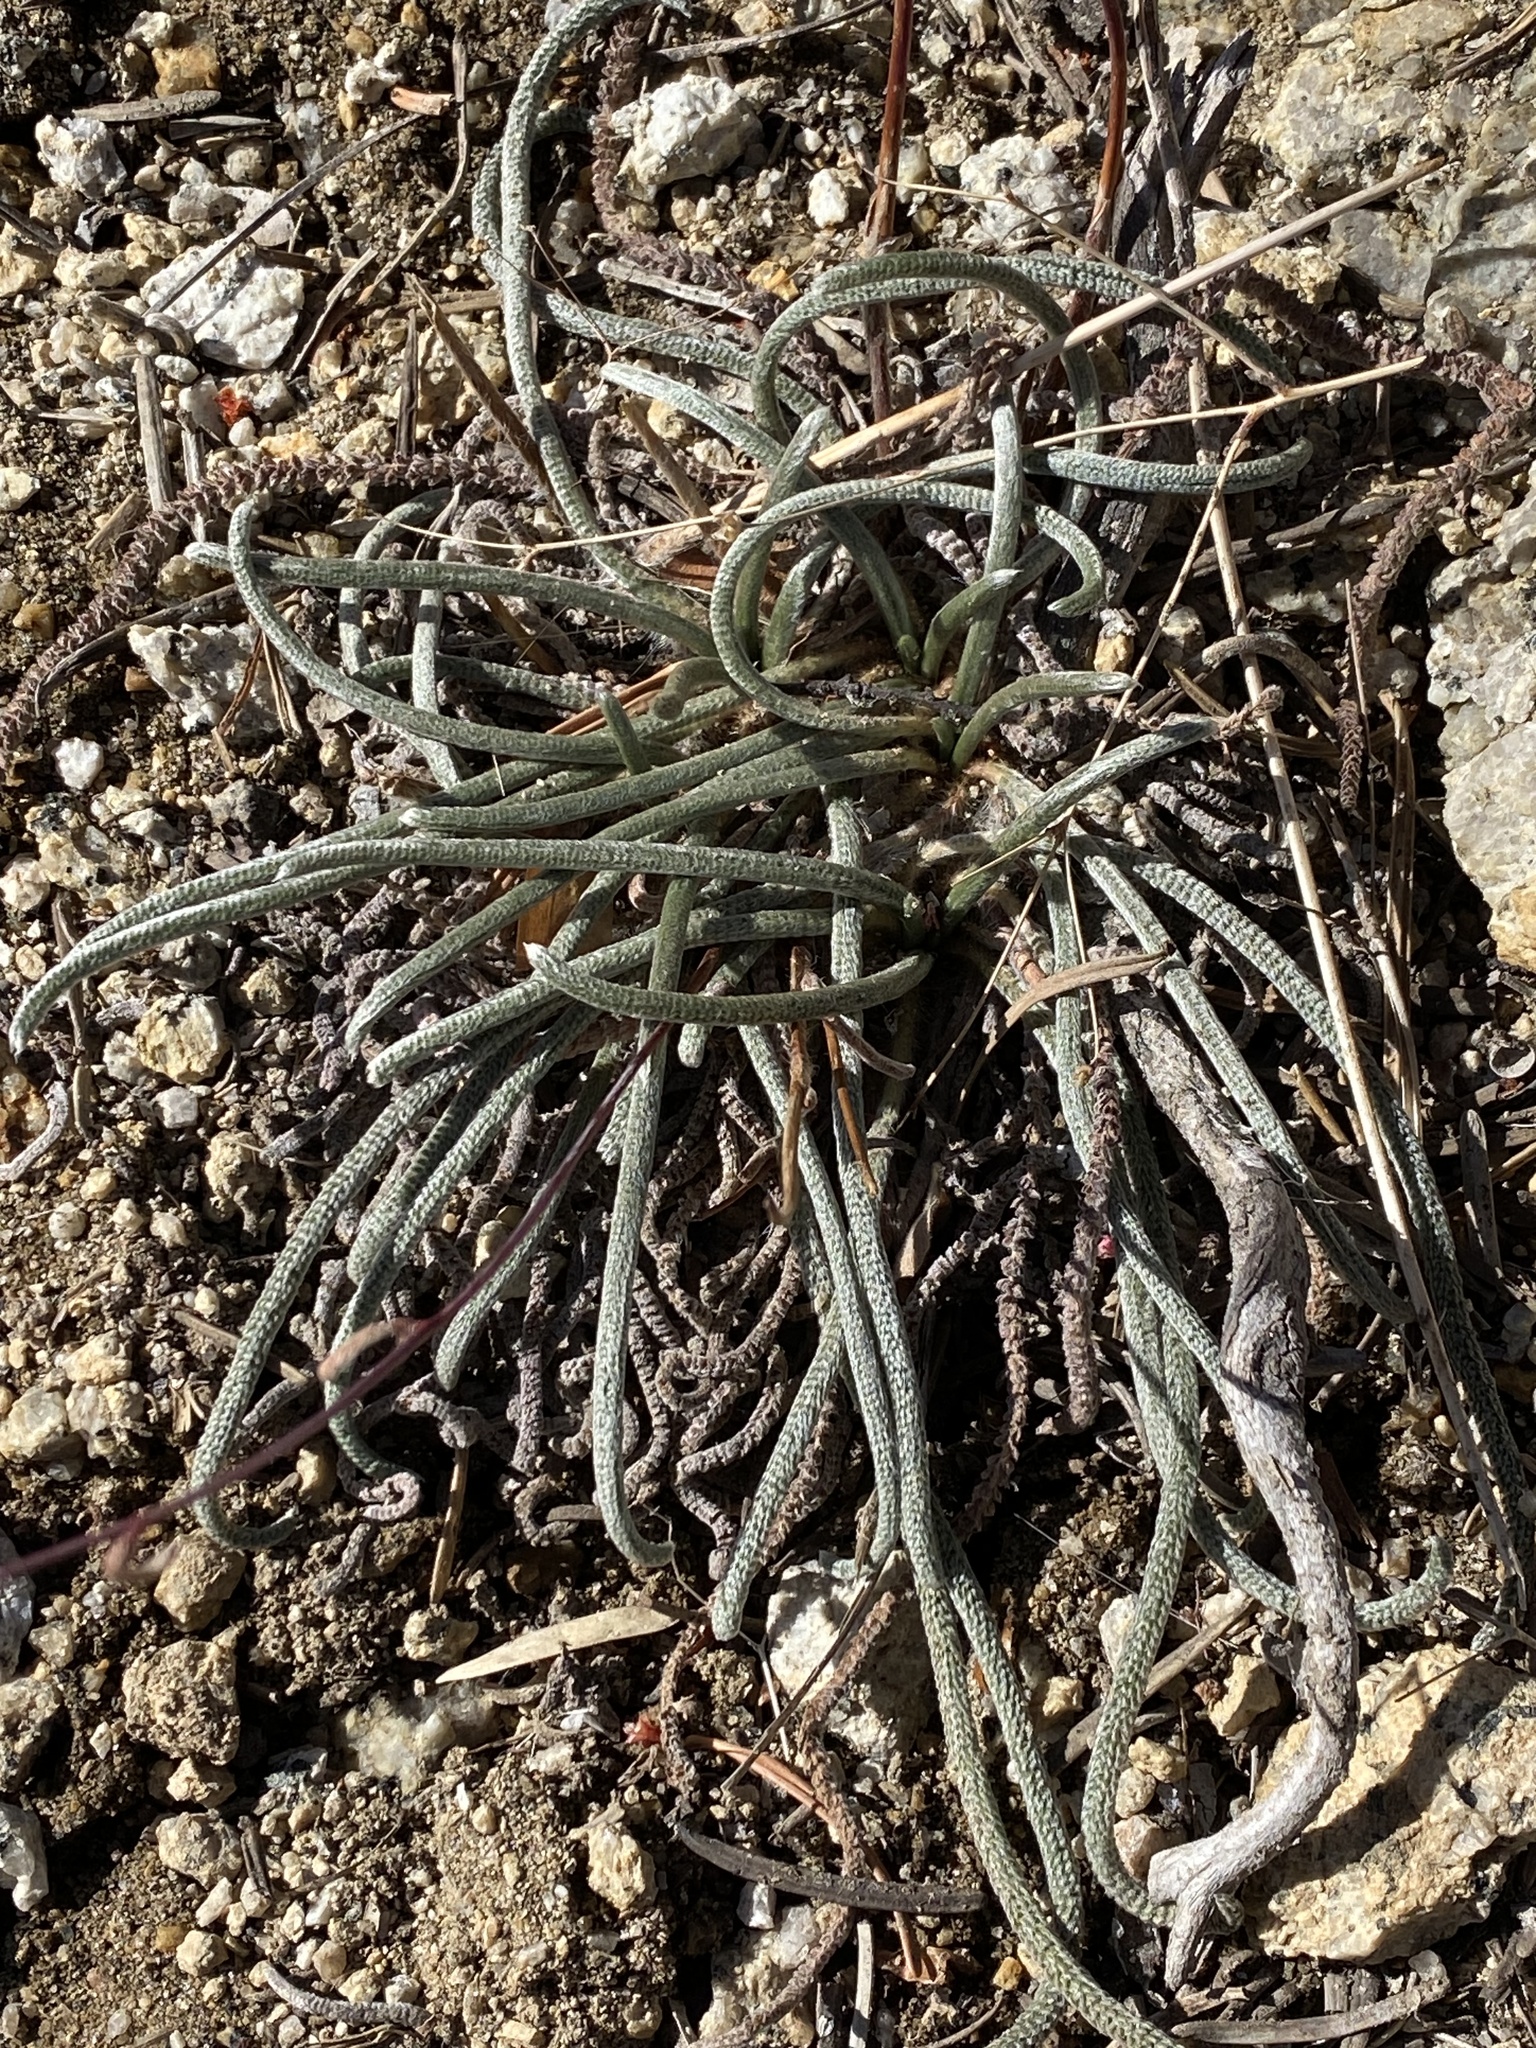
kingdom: Plantae
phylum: Tracheophyta
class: Magnoliopsida
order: Rosales
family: Rosaceae
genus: Potentilla
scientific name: Potentilla santolinoides
